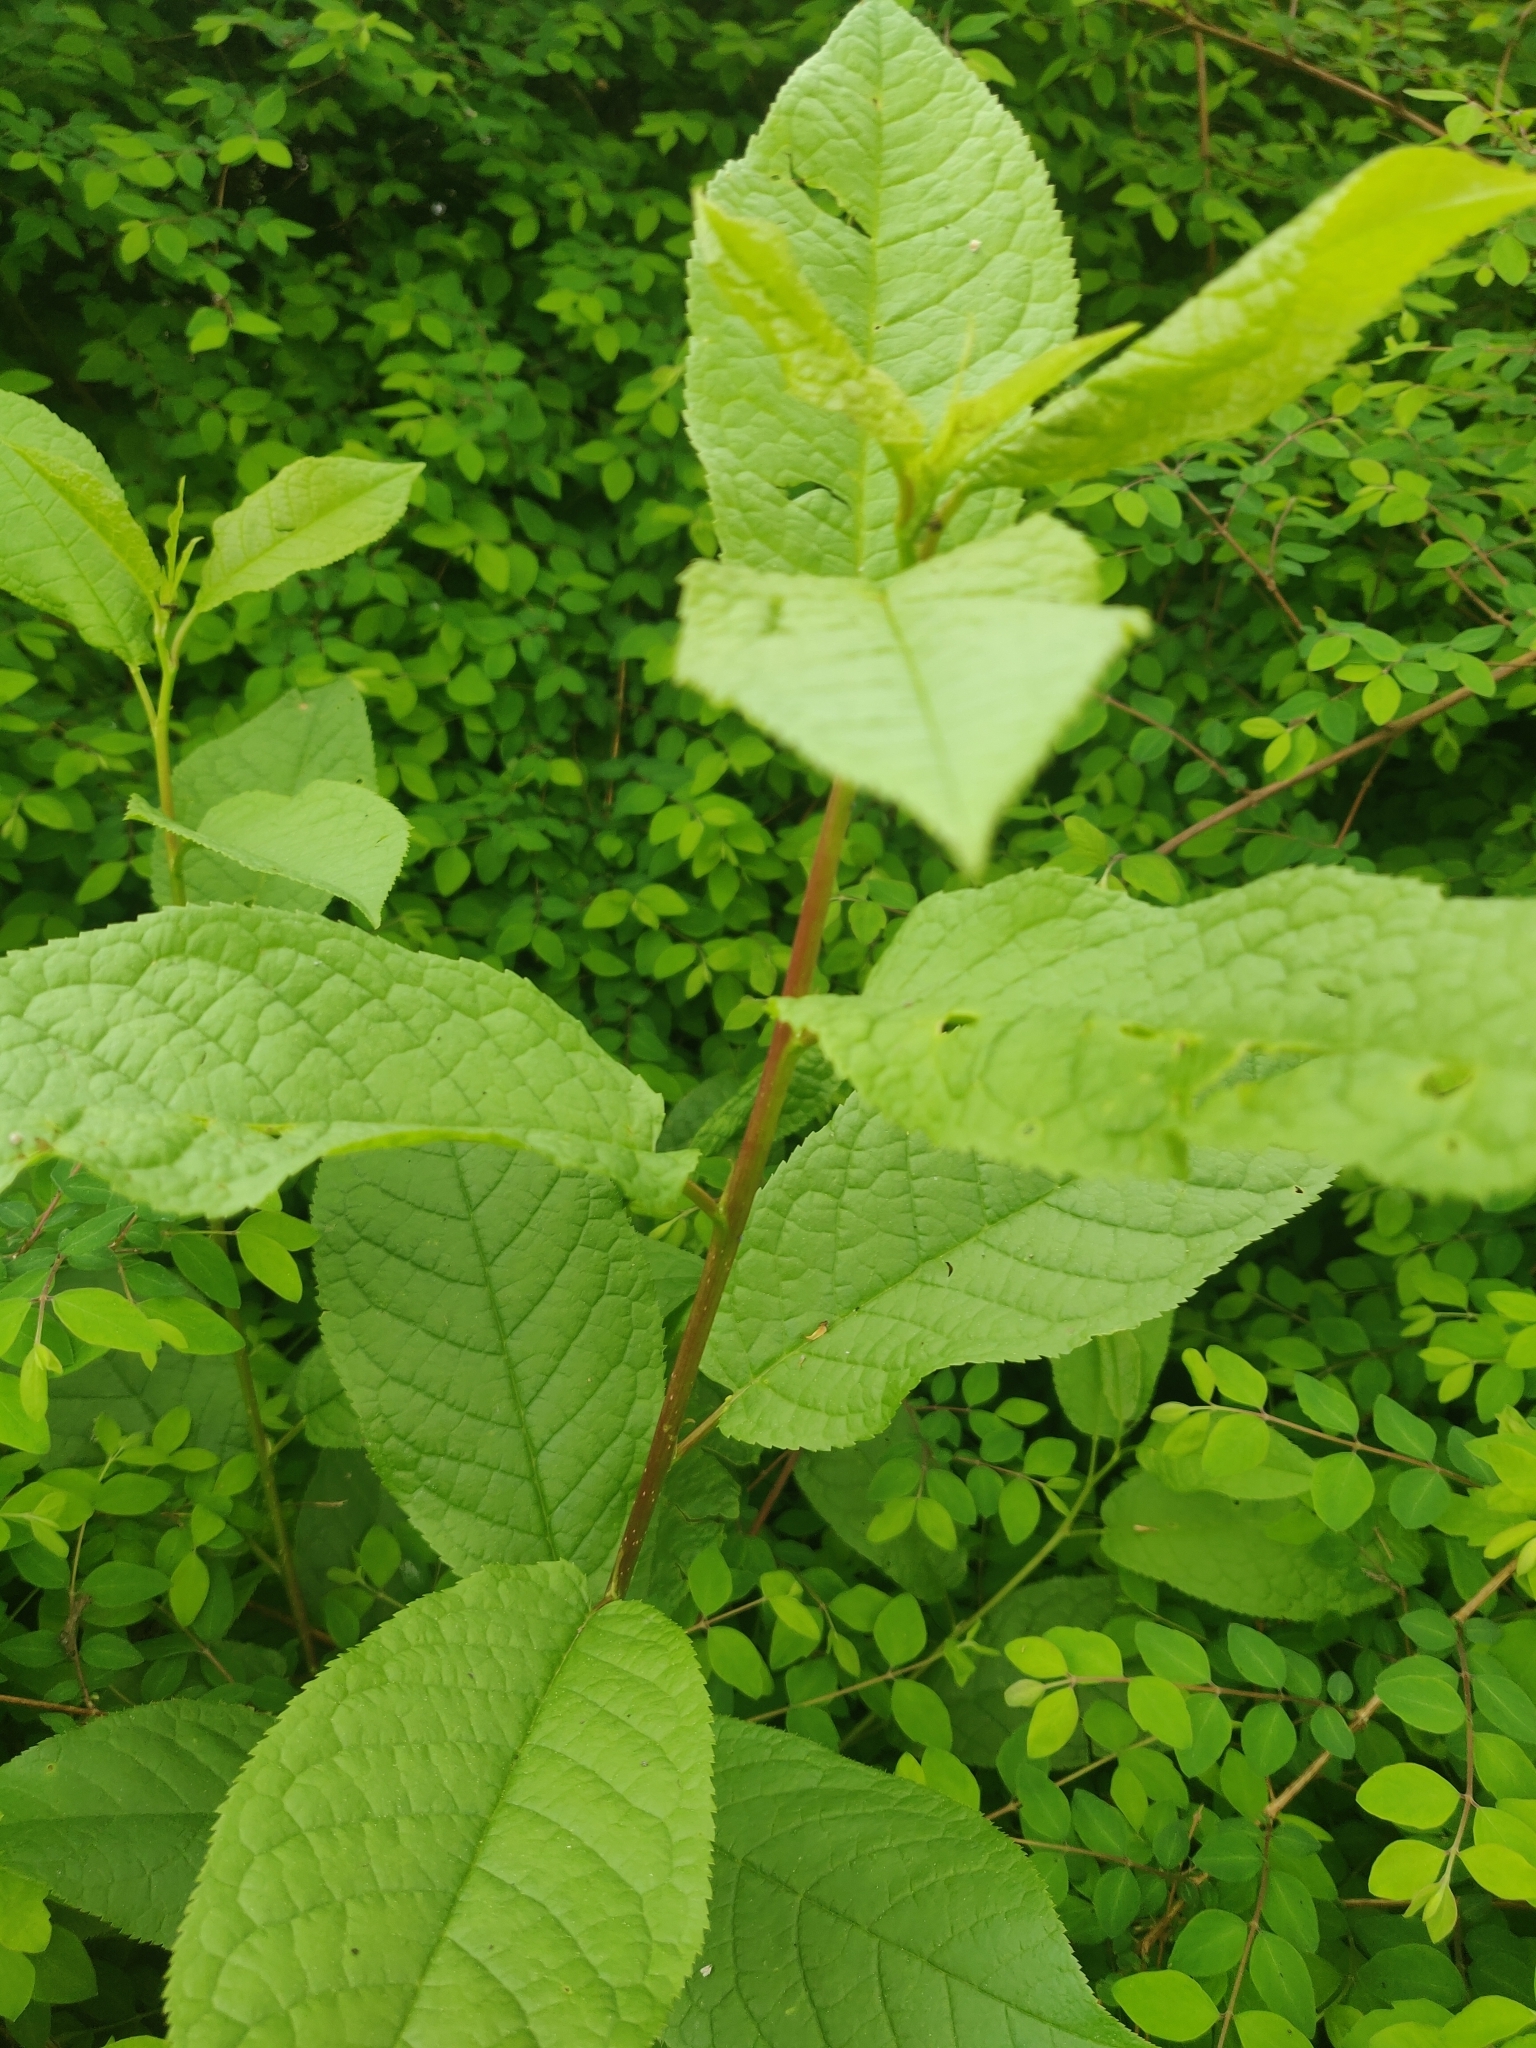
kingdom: Plantae
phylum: Tracheophyta
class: Magnoliopsida
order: Rosales
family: Rosaceae
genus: Prunus
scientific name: Prunus padus
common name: Bird cherry
